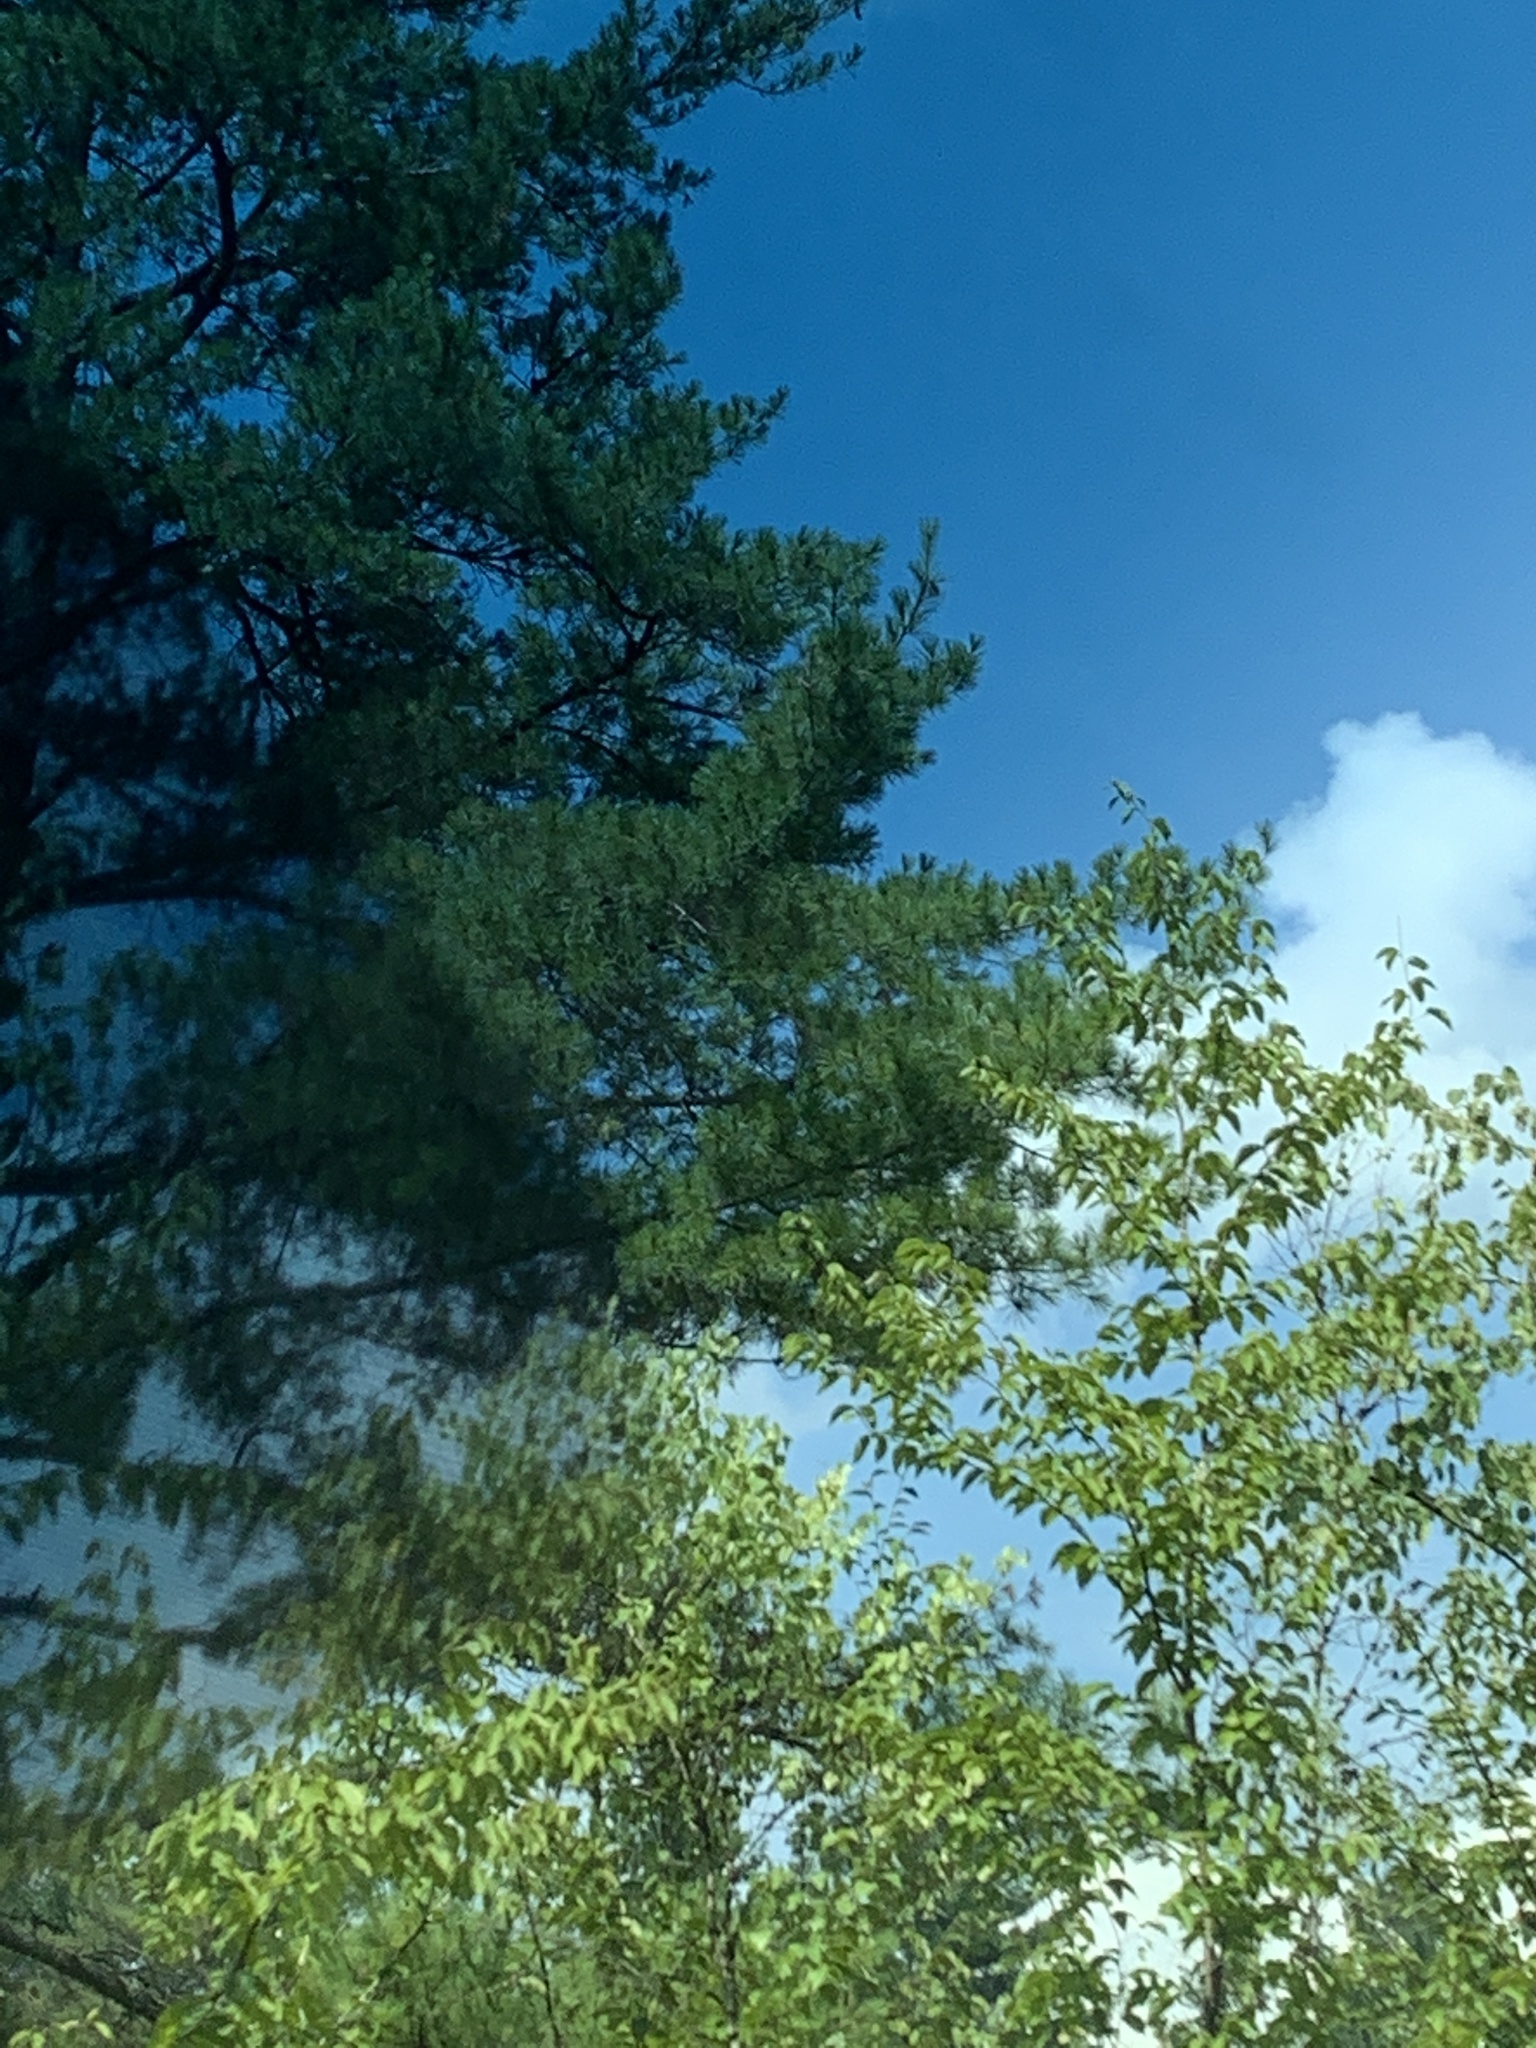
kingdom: Plantae
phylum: Tracheophyta
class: Pinopsida
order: Pinales
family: Pinaceae
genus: Pinus
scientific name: Pinus strobus
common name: Weymouth pine
